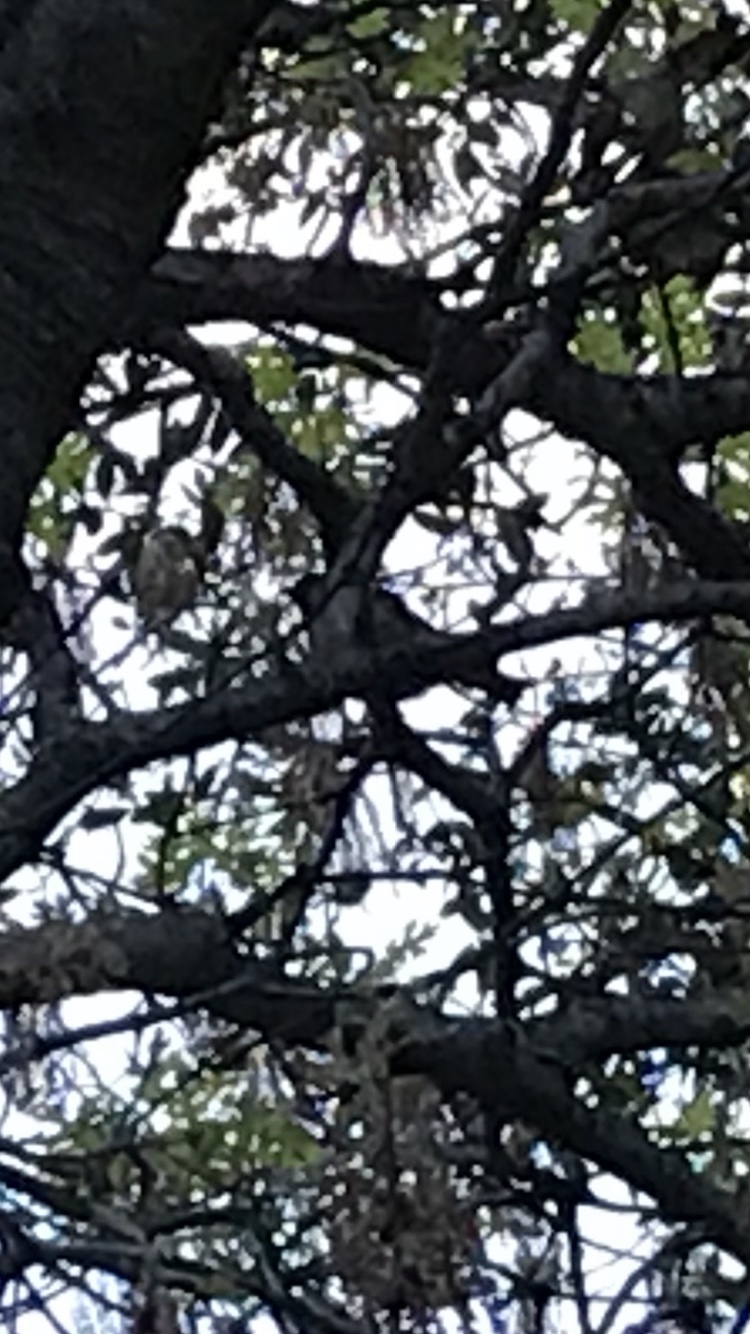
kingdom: Animalia
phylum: Chordata
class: Aves
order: Passeriformes
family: Passeridae
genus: Passer
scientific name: Passer domesticus
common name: House sparrow
